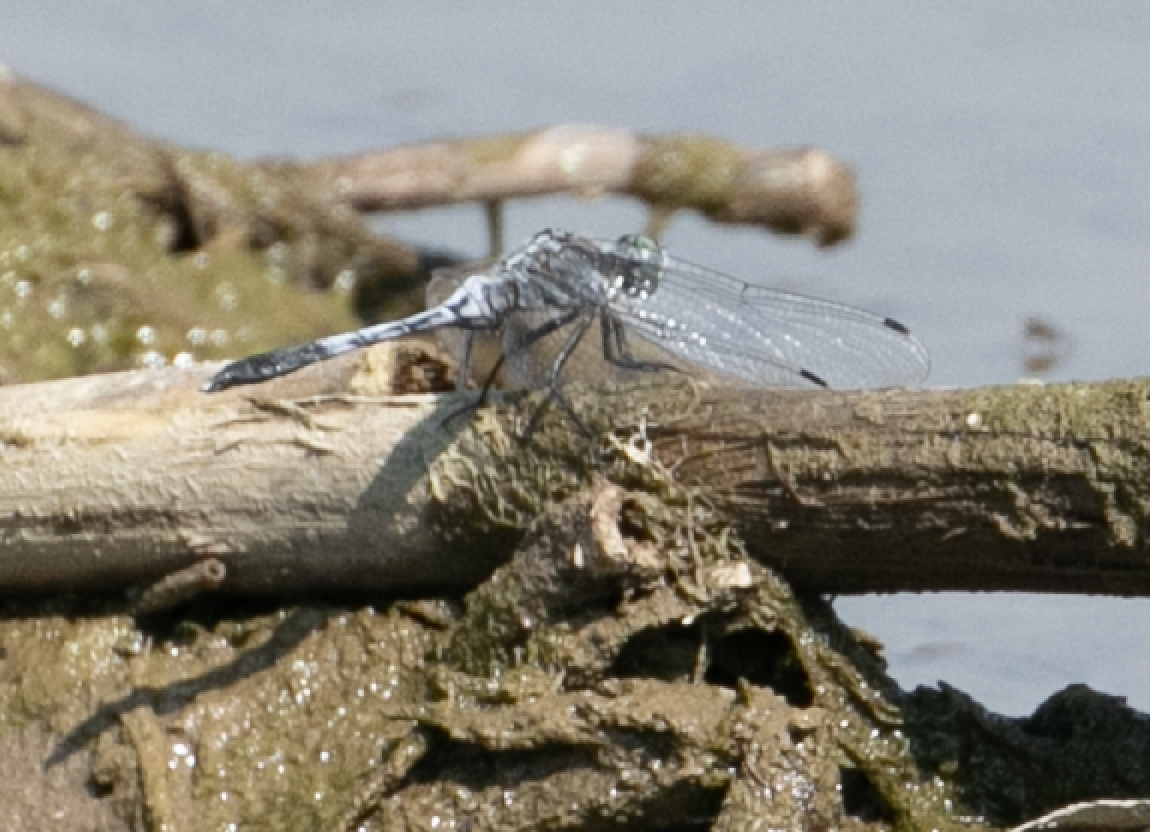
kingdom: Animalia
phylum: Arthropoda
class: Insecta
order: Odonata
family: Libellulidae
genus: Orthetrum
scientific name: Orthetrum albistylum
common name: White-tailed skimmer
